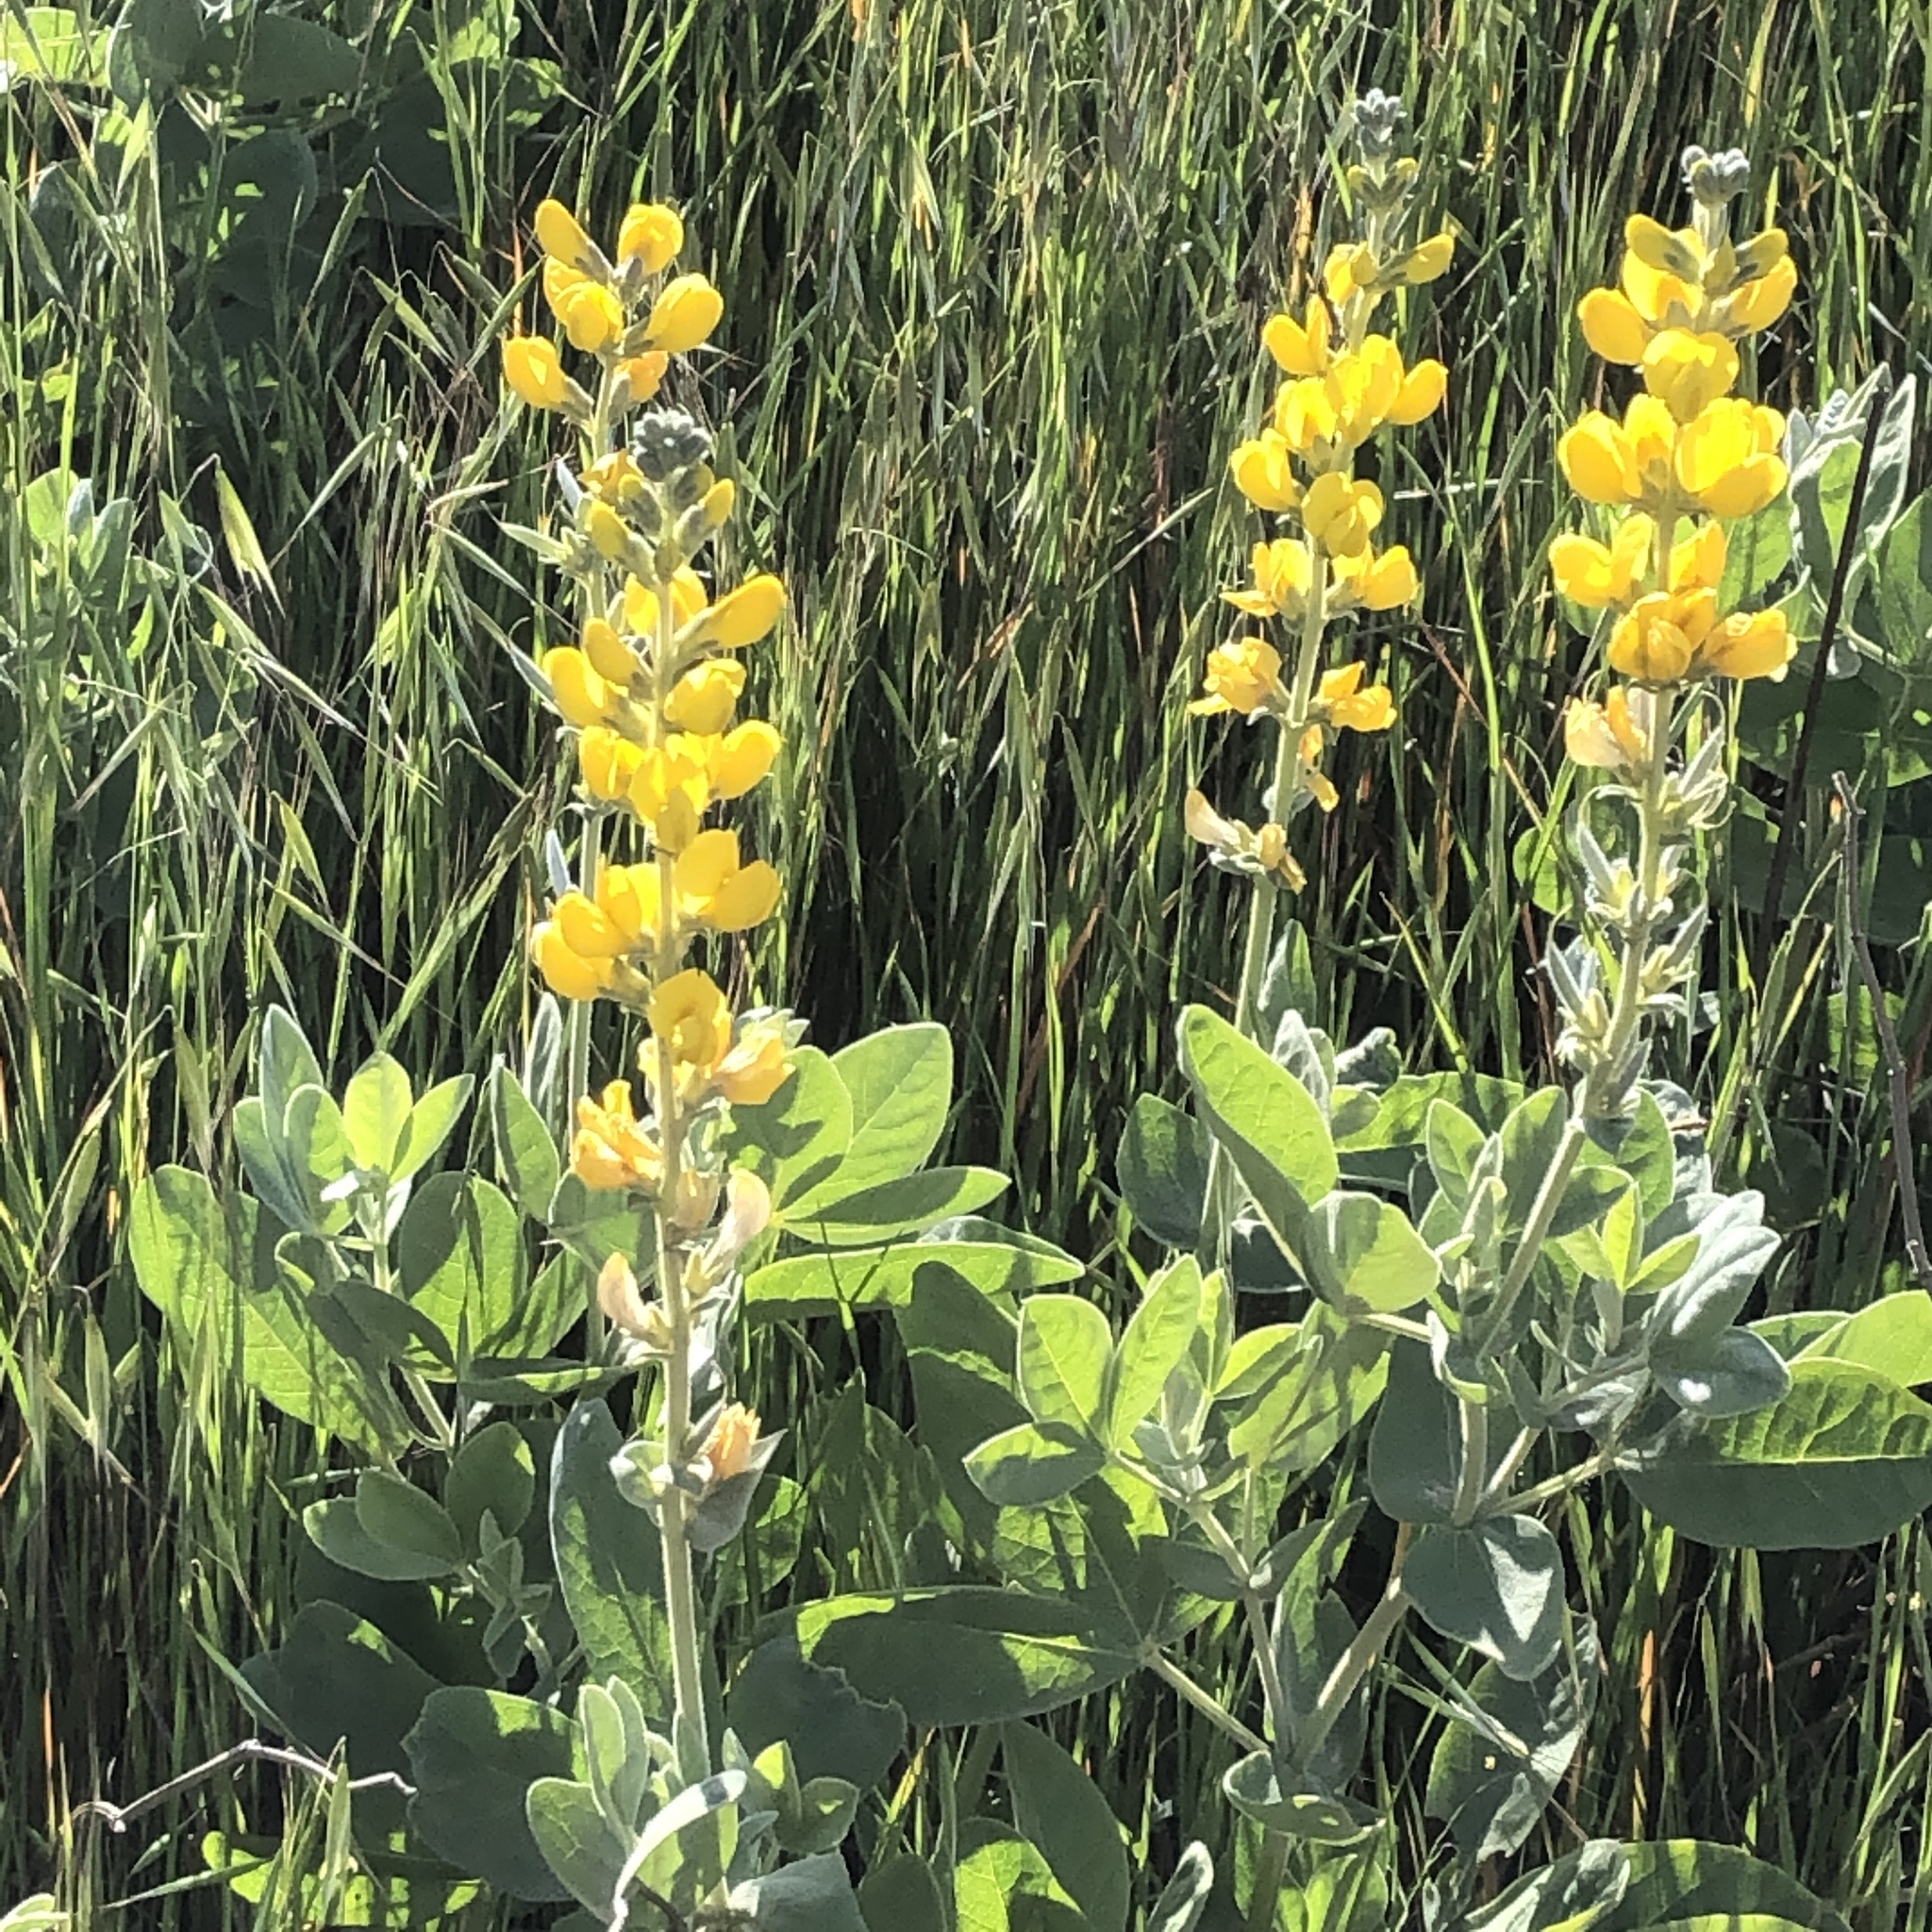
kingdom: Plantae
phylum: Tracheophyta
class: Magnoliopsida
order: Fabales
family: Fabaceae
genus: Thermopsis
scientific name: Thermopsis californica
